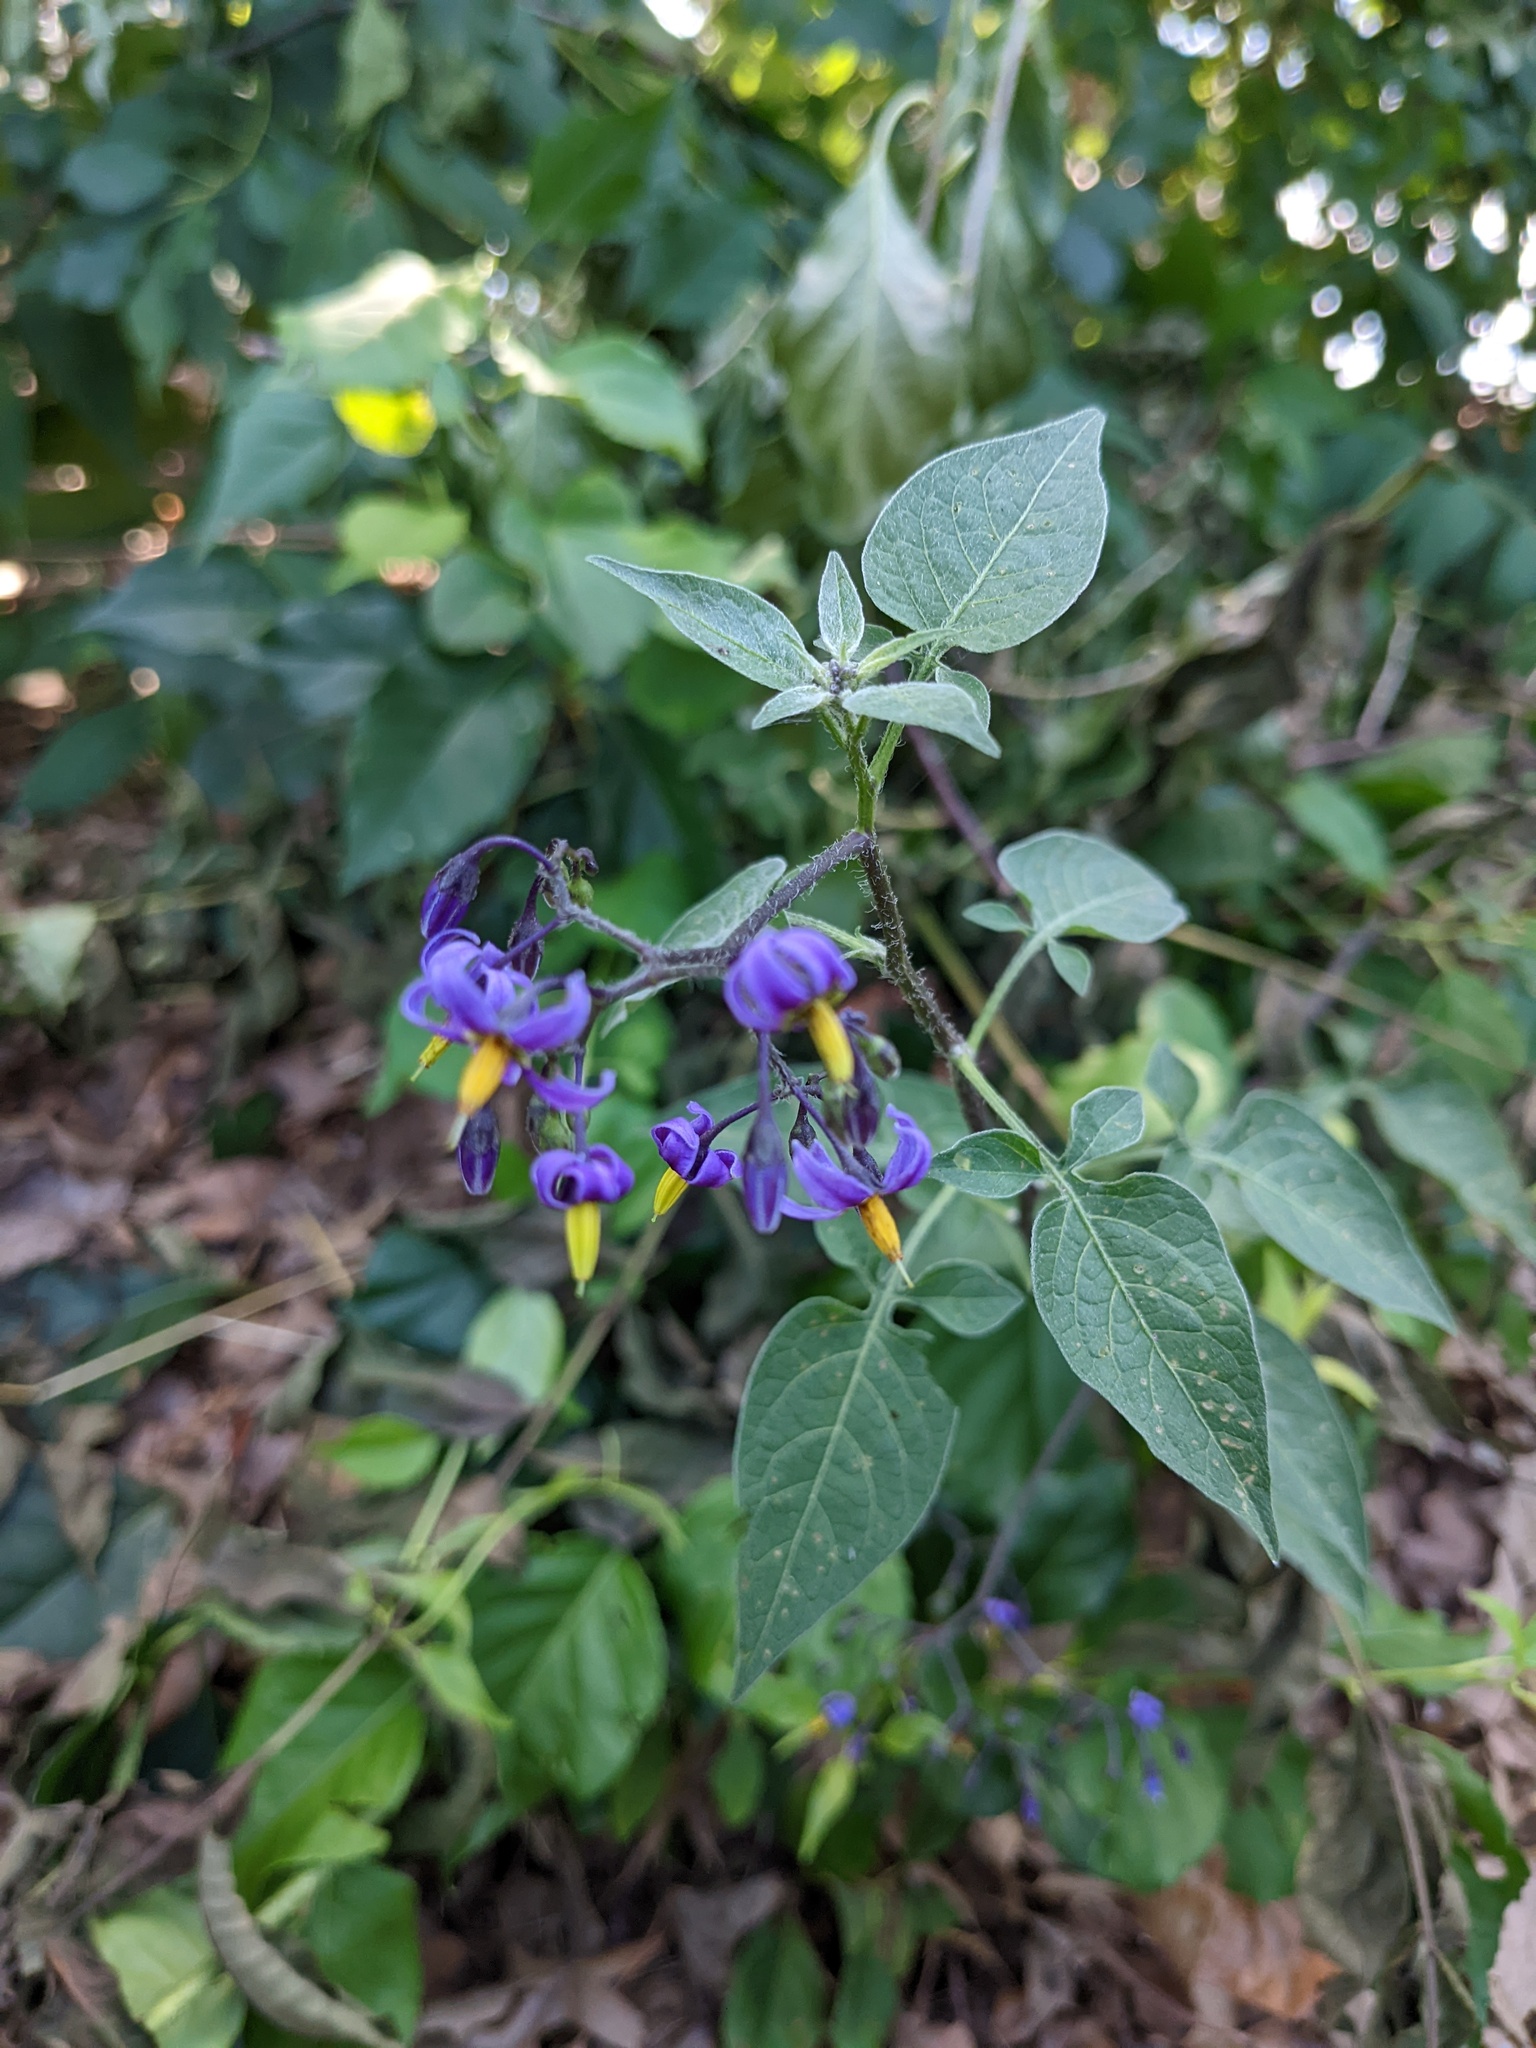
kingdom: Plantae
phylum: Tracheophyta
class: Magnoliopsida
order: Solanales
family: Solanaceae
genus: Solanum
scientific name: Solanum dulcamara
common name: Climbing nightshade
